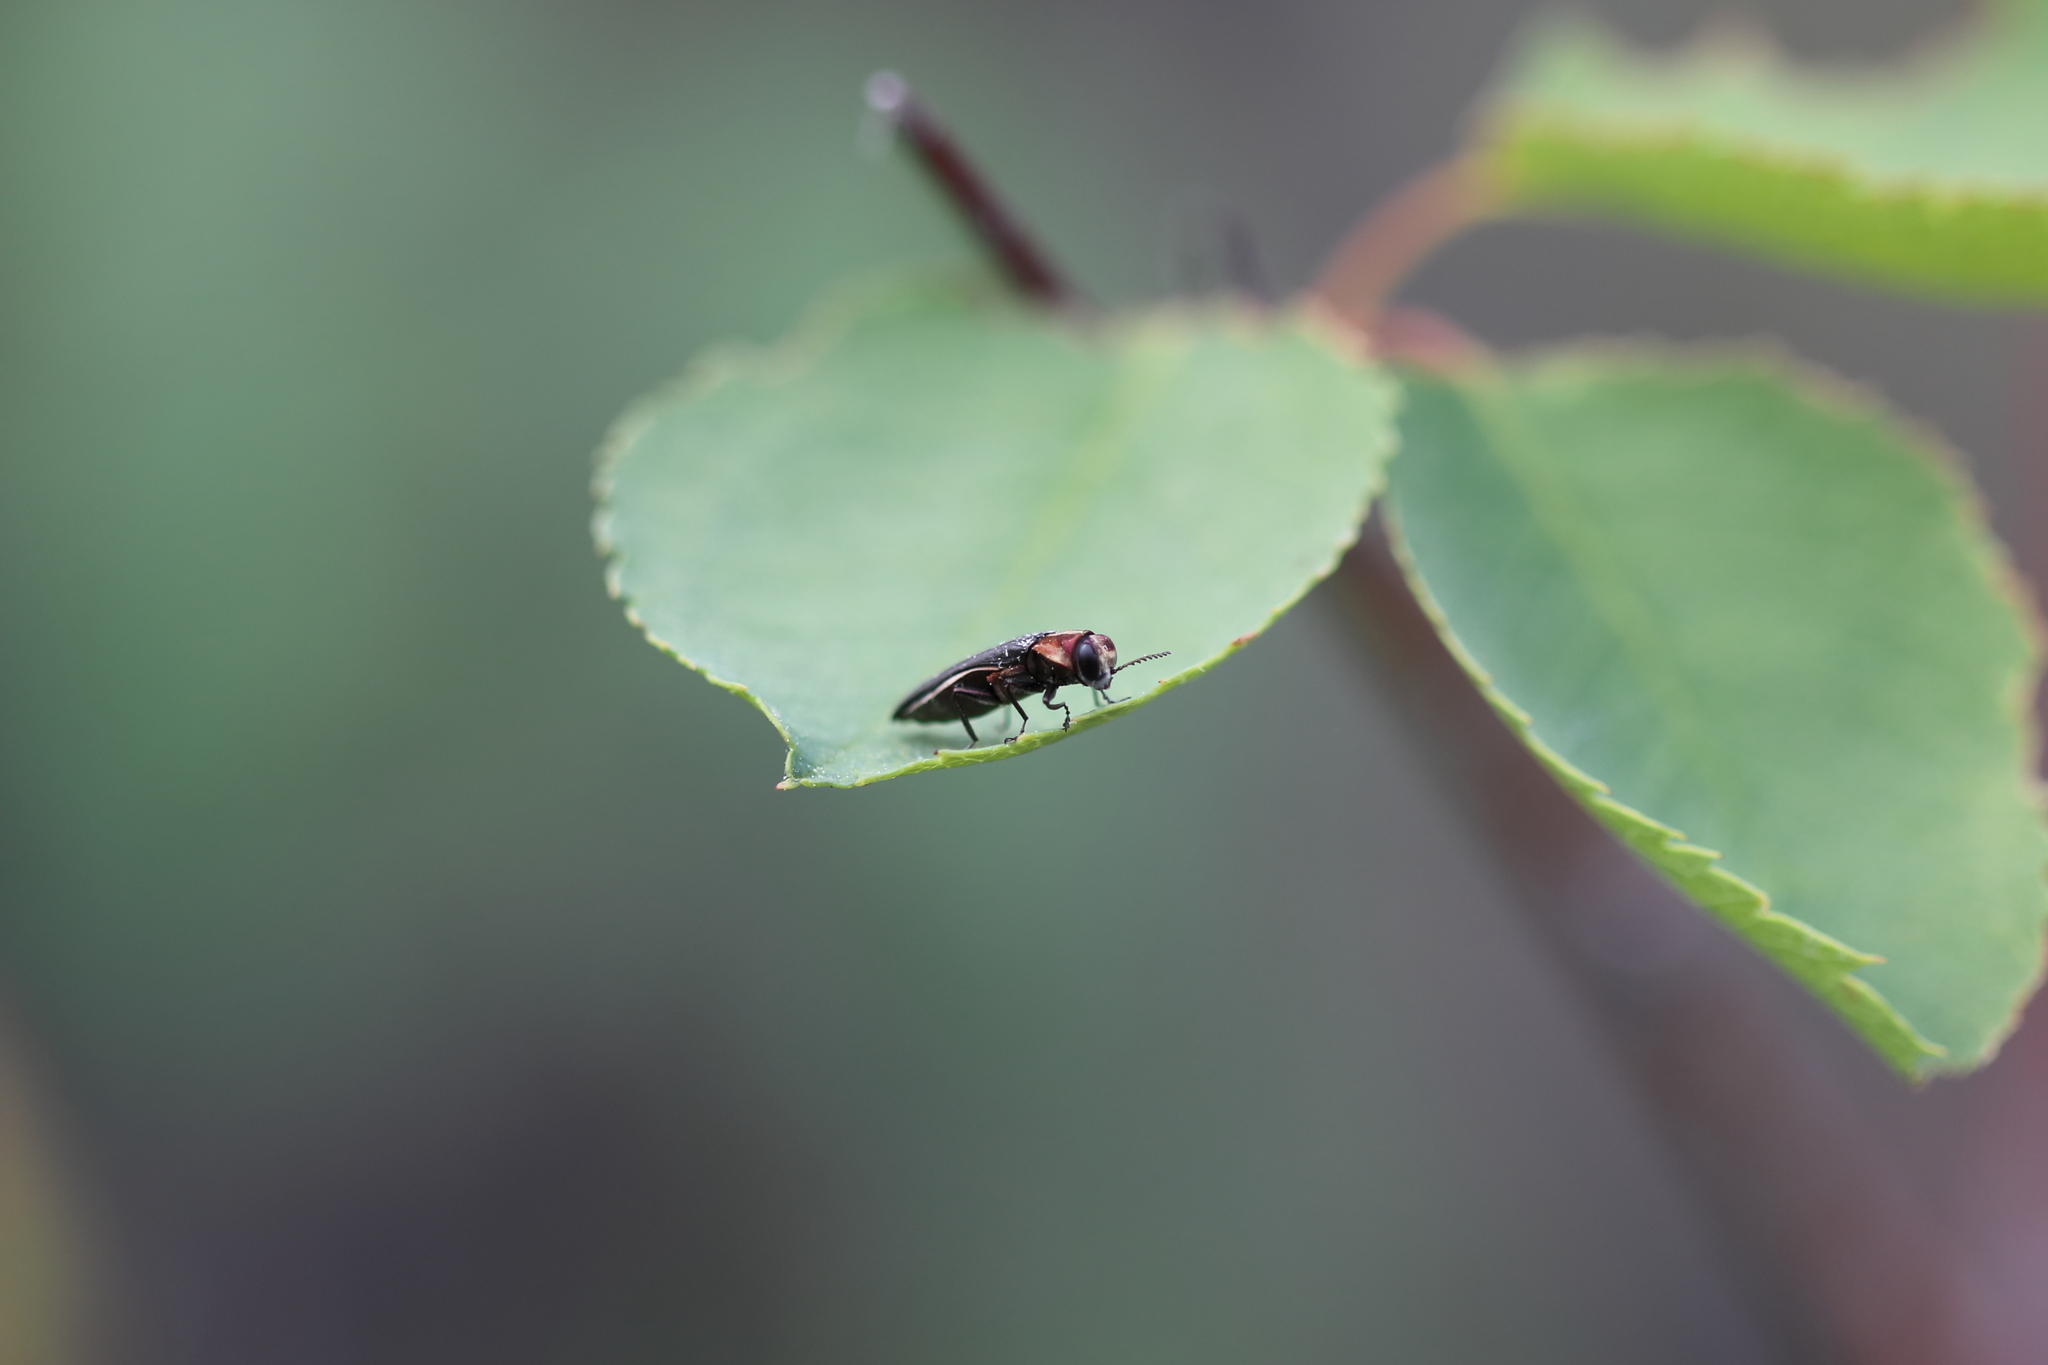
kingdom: Animalia
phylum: Arthropoda
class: Insecta
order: Coleoptera
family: Buprestidae
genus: Agrilus
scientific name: Agrilus vittaticollis
